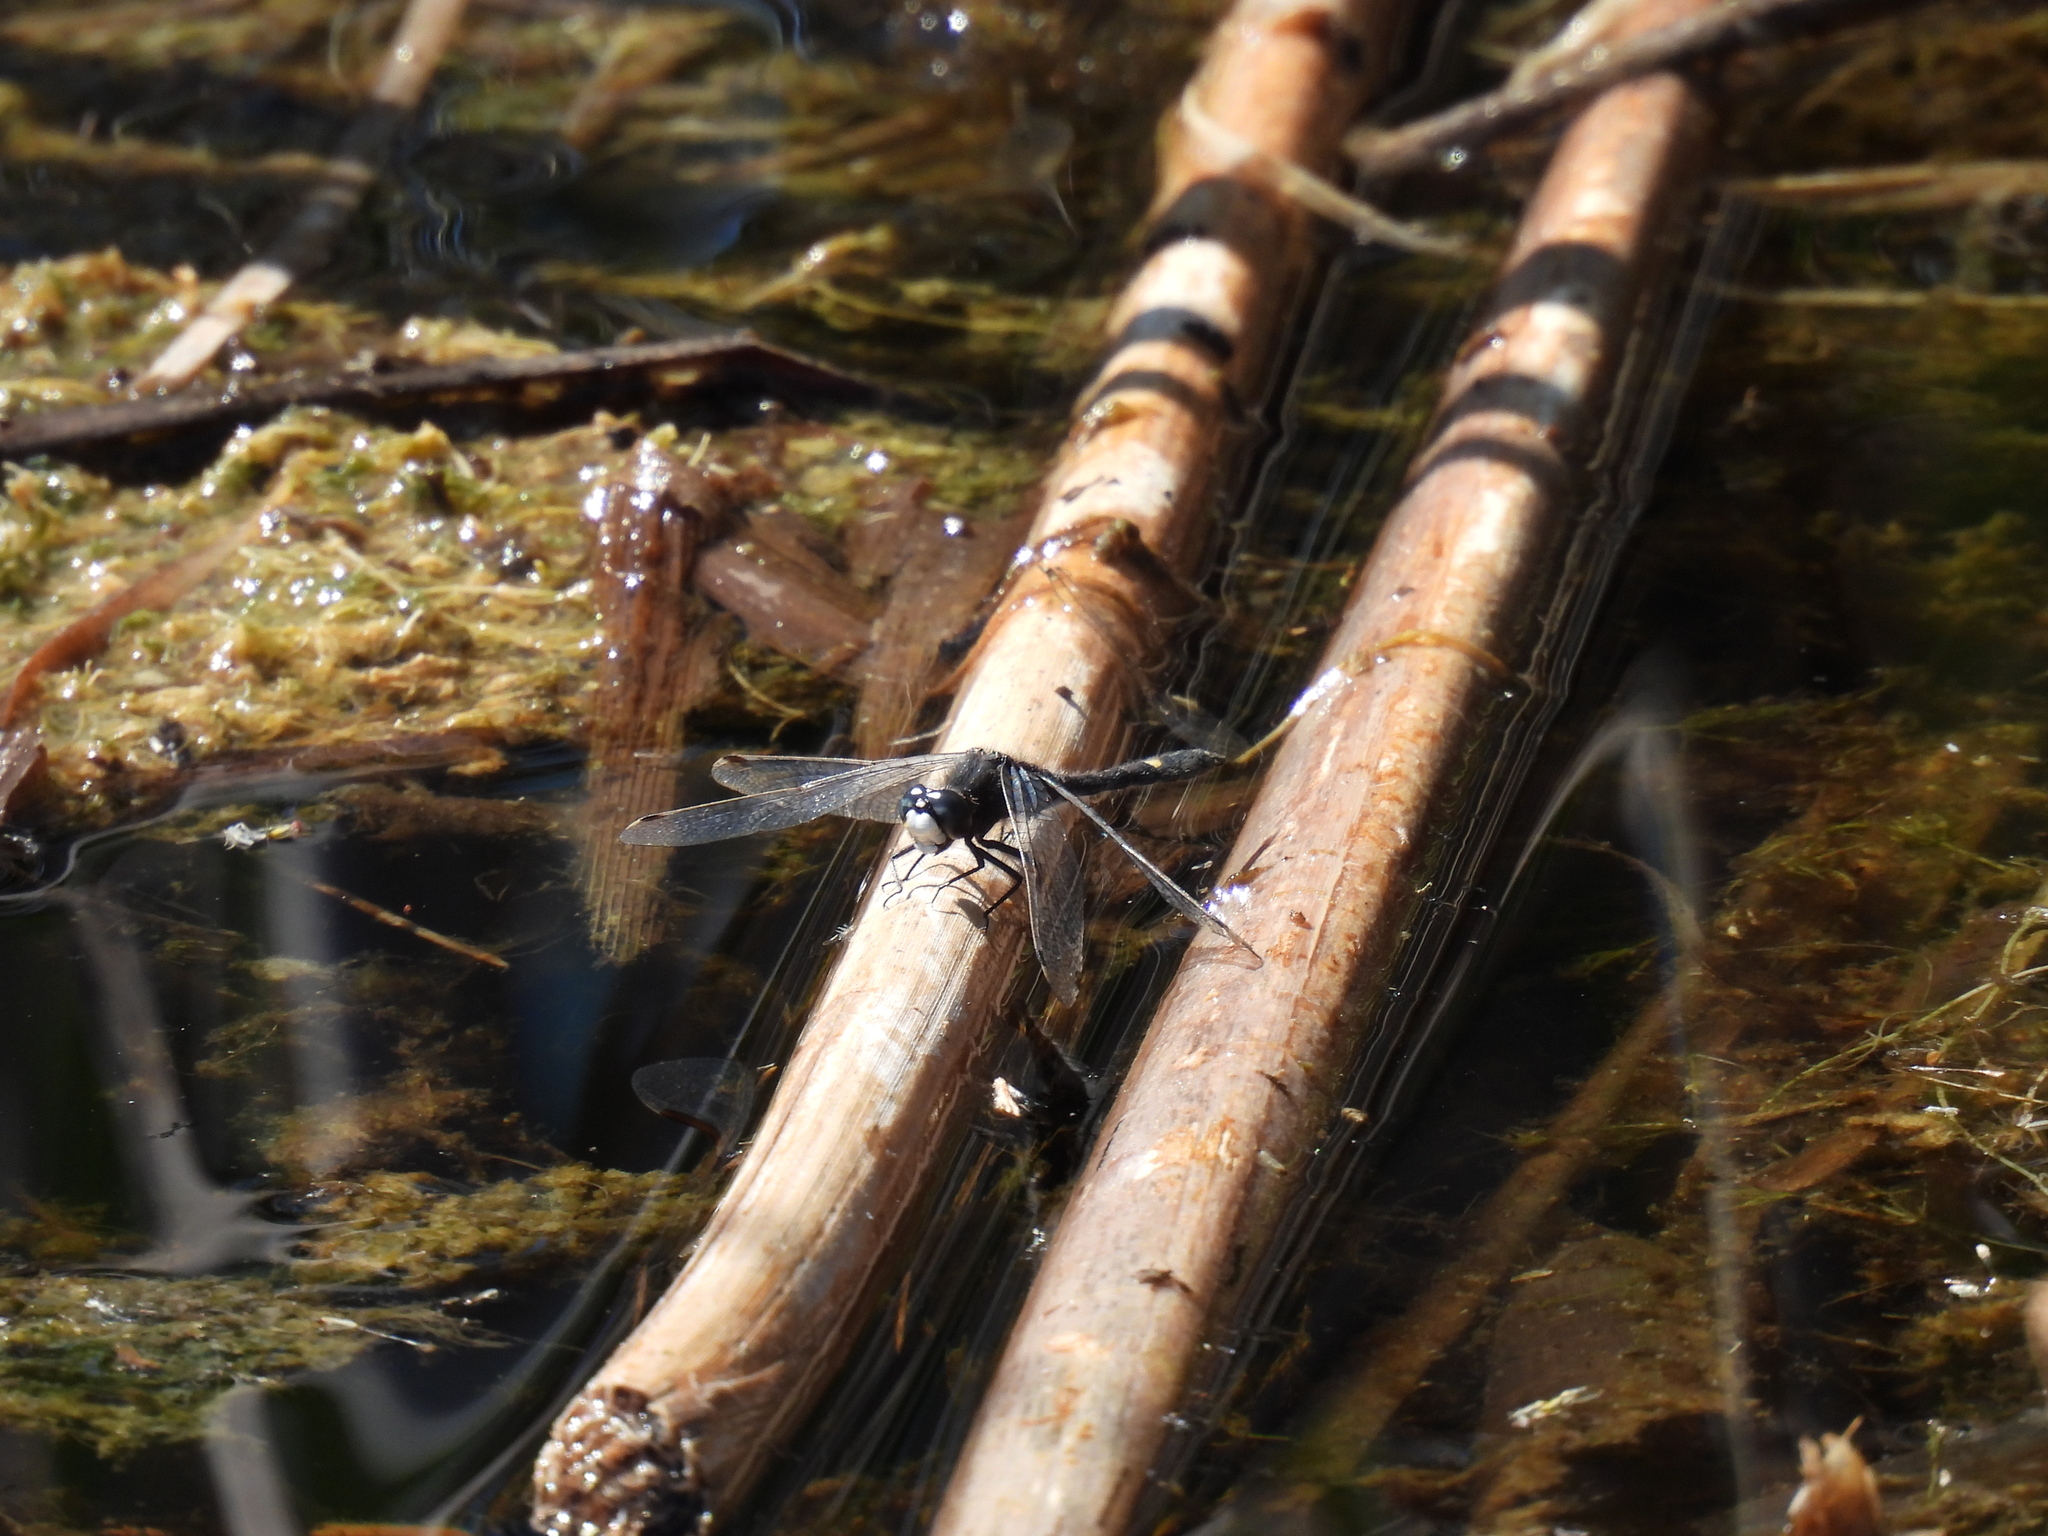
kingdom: Animalia
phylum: Arthropoda
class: Insecta
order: Odonata
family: Libellulidae
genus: Leucorrhinia
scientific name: Leucorrhinia intacta
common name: Dot-tailed whiteface
